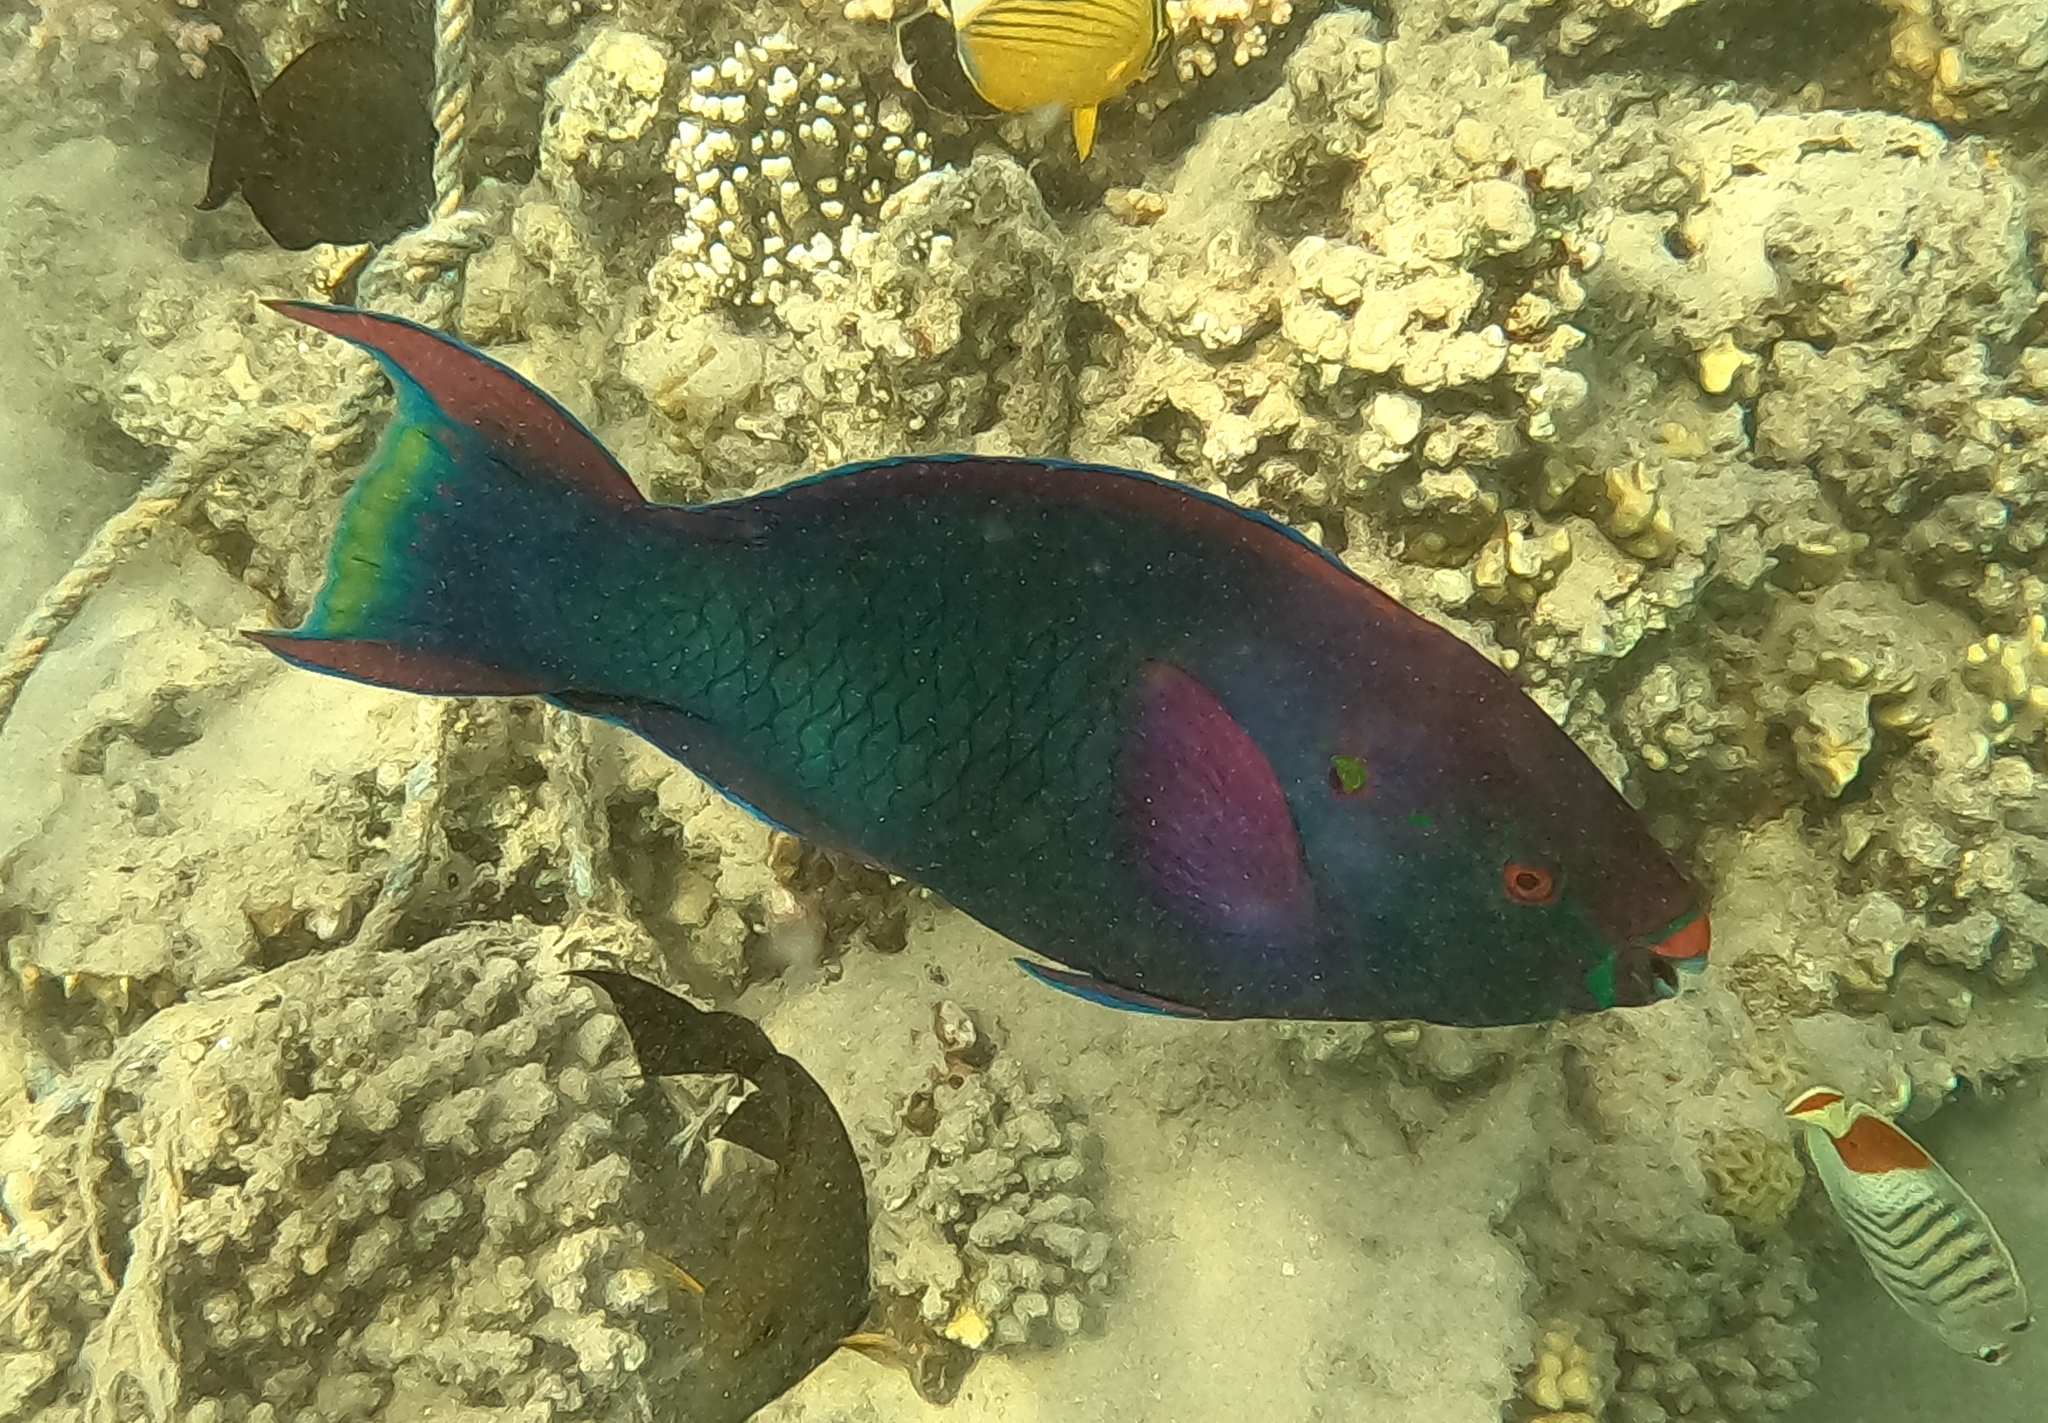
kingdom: Animalia
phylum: Chordata
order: Perciformes
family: Scaridae
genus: Scarus
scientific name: Scarus niger
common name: Dusky parrotfish
